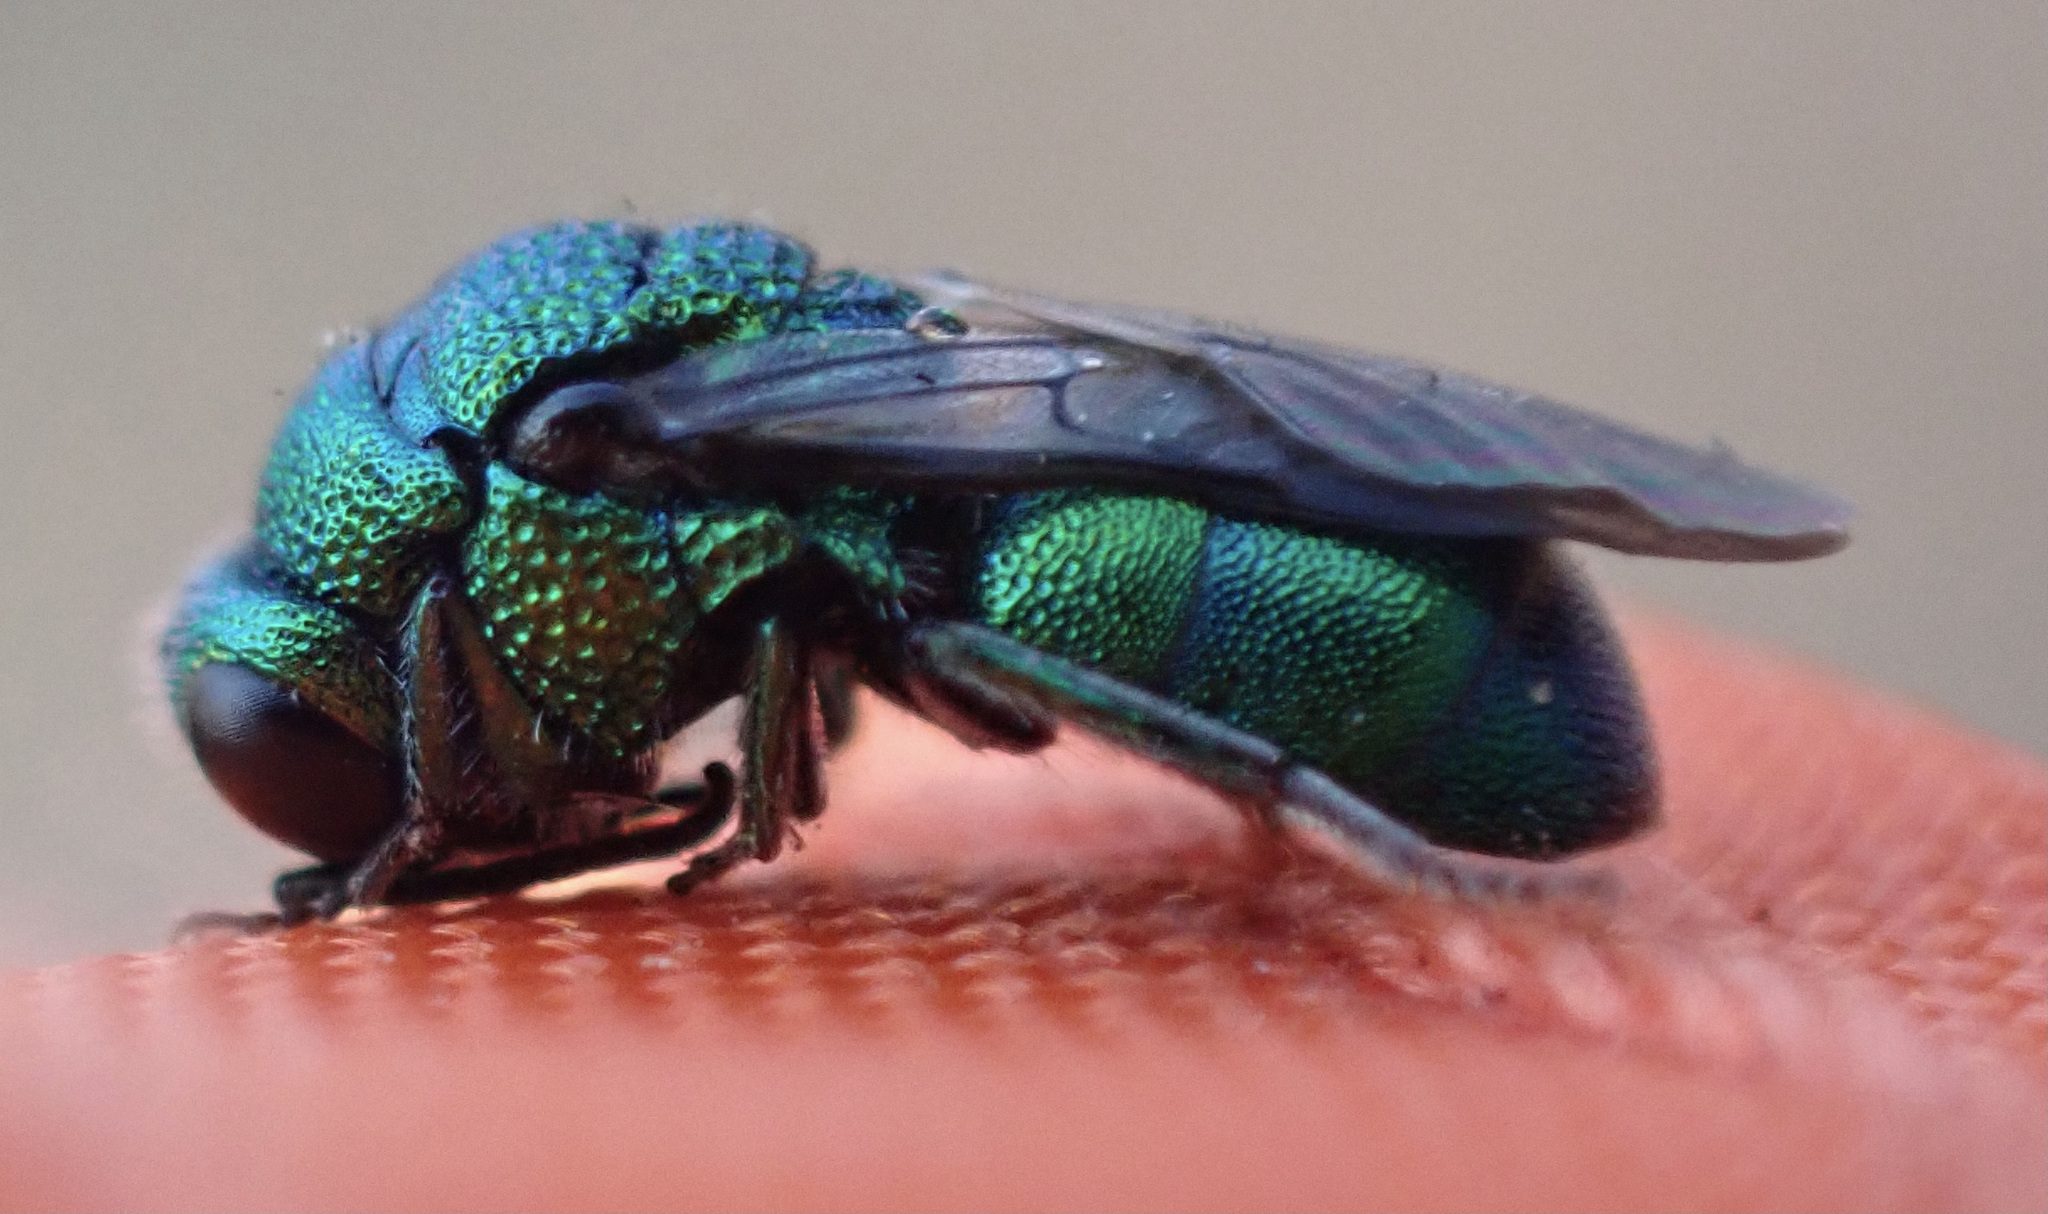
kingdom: Animalia
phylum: Arthropoda
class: Insecta
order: Hymenoptera
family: Chrysididae
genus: Holopyga
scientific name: Holopyga
